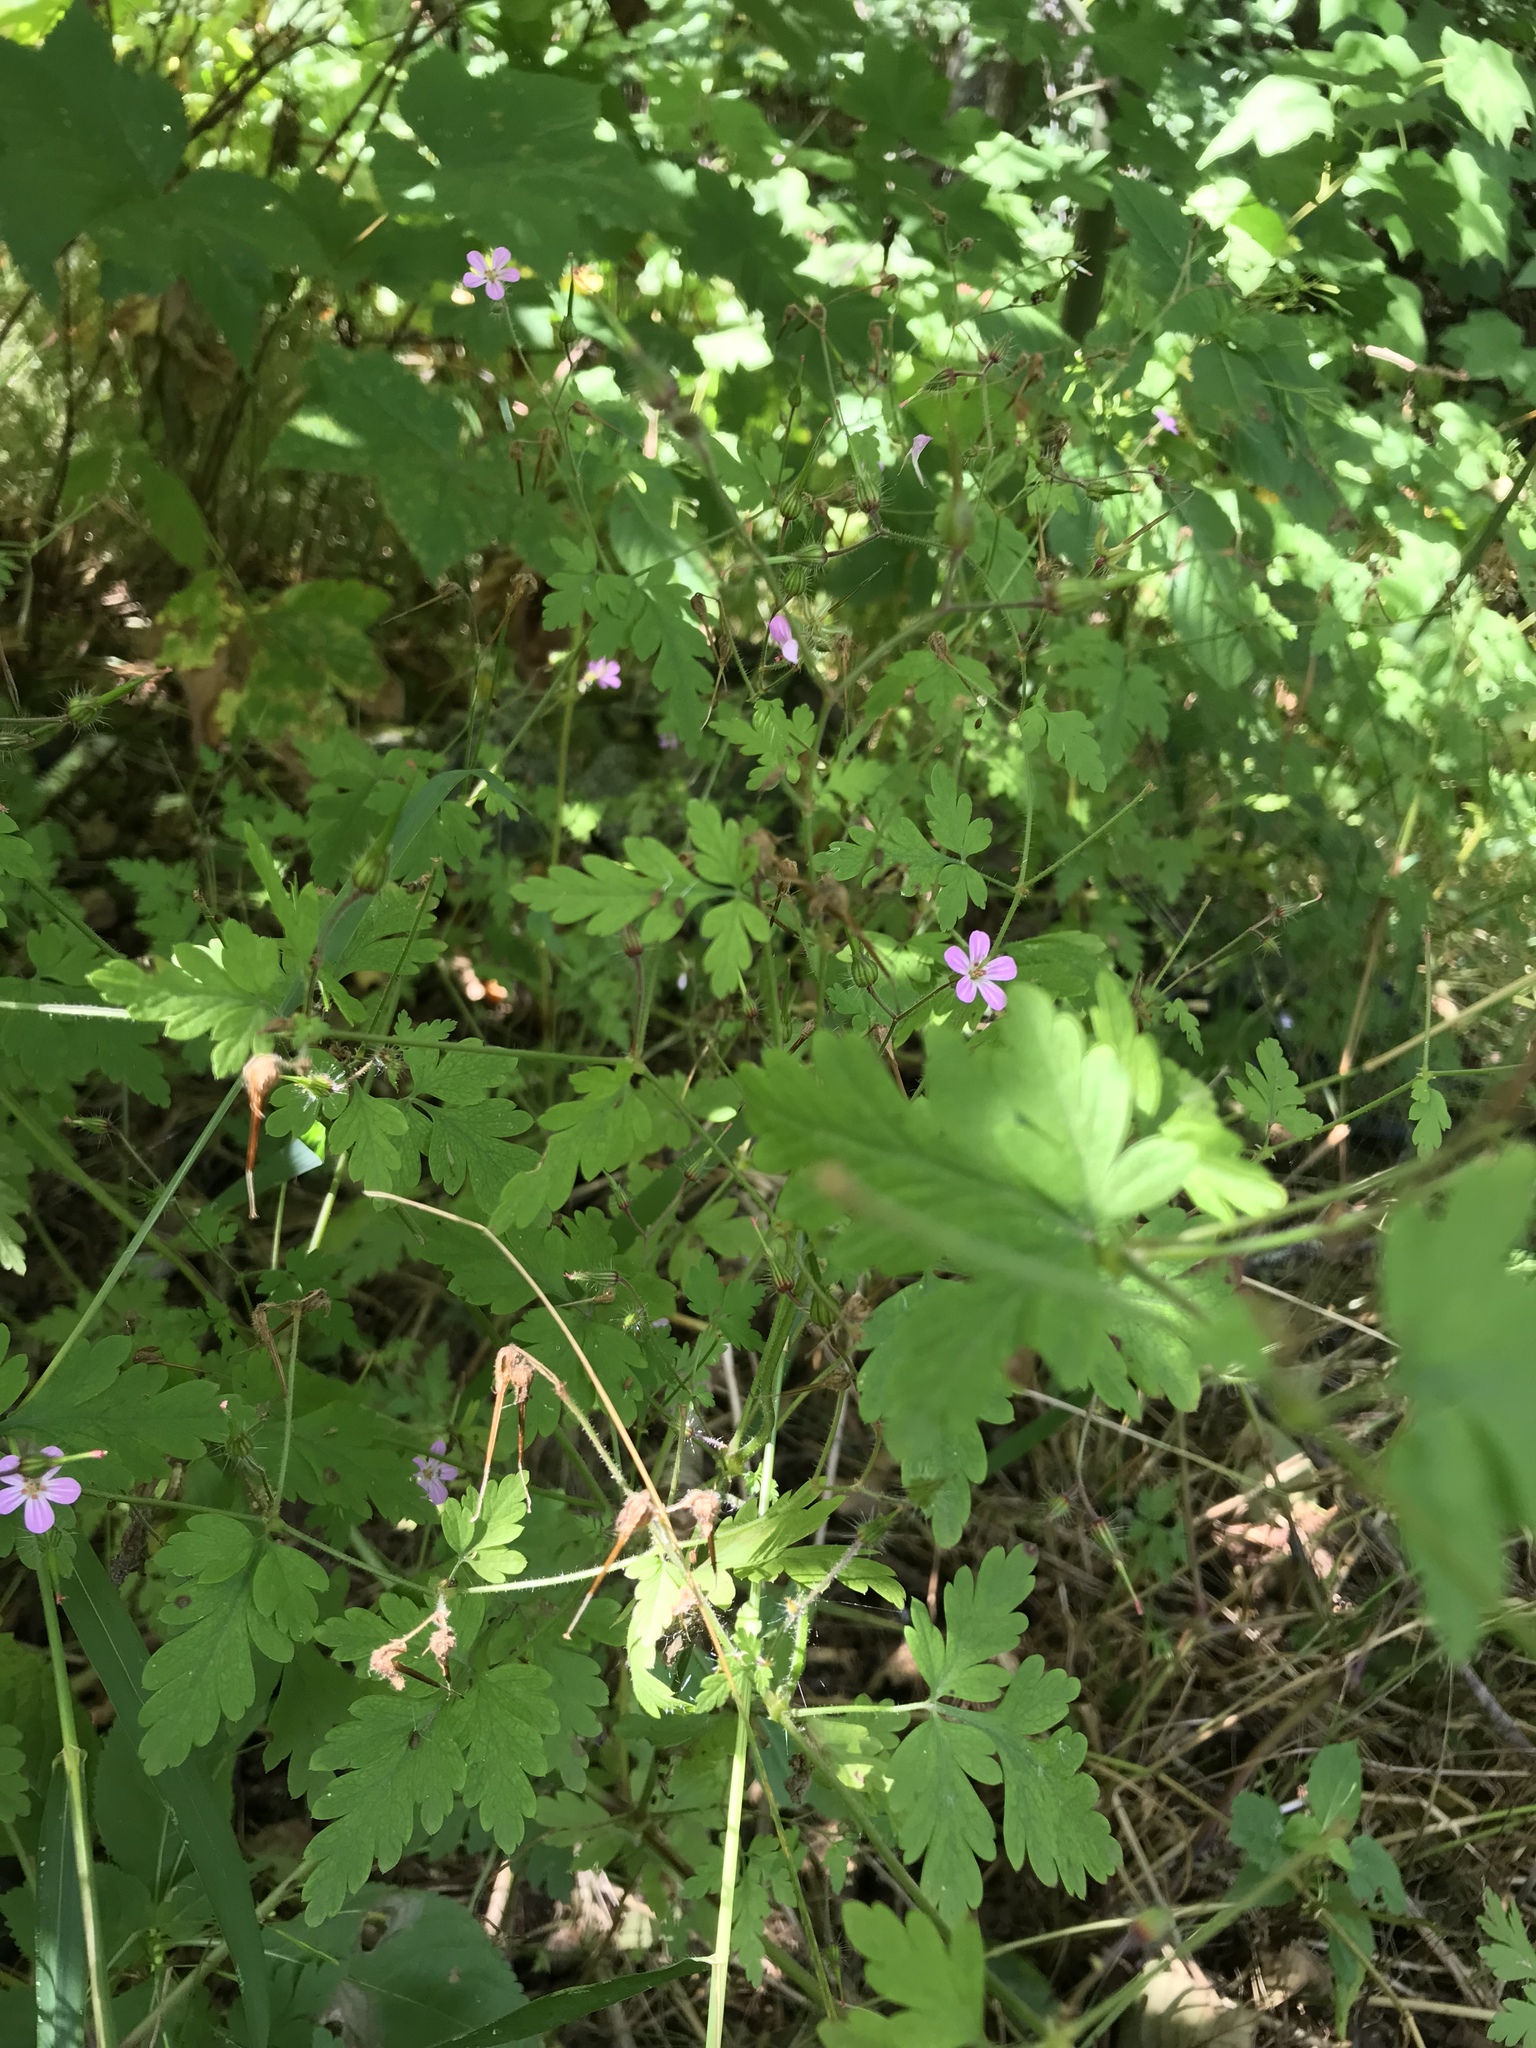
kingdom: Plantae
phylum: Tracheophyta
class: Magnoliopsida
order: Geraniales
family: Geraniaceae
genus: Geranium
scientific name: Geranium robertianum
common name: Herb-robert
